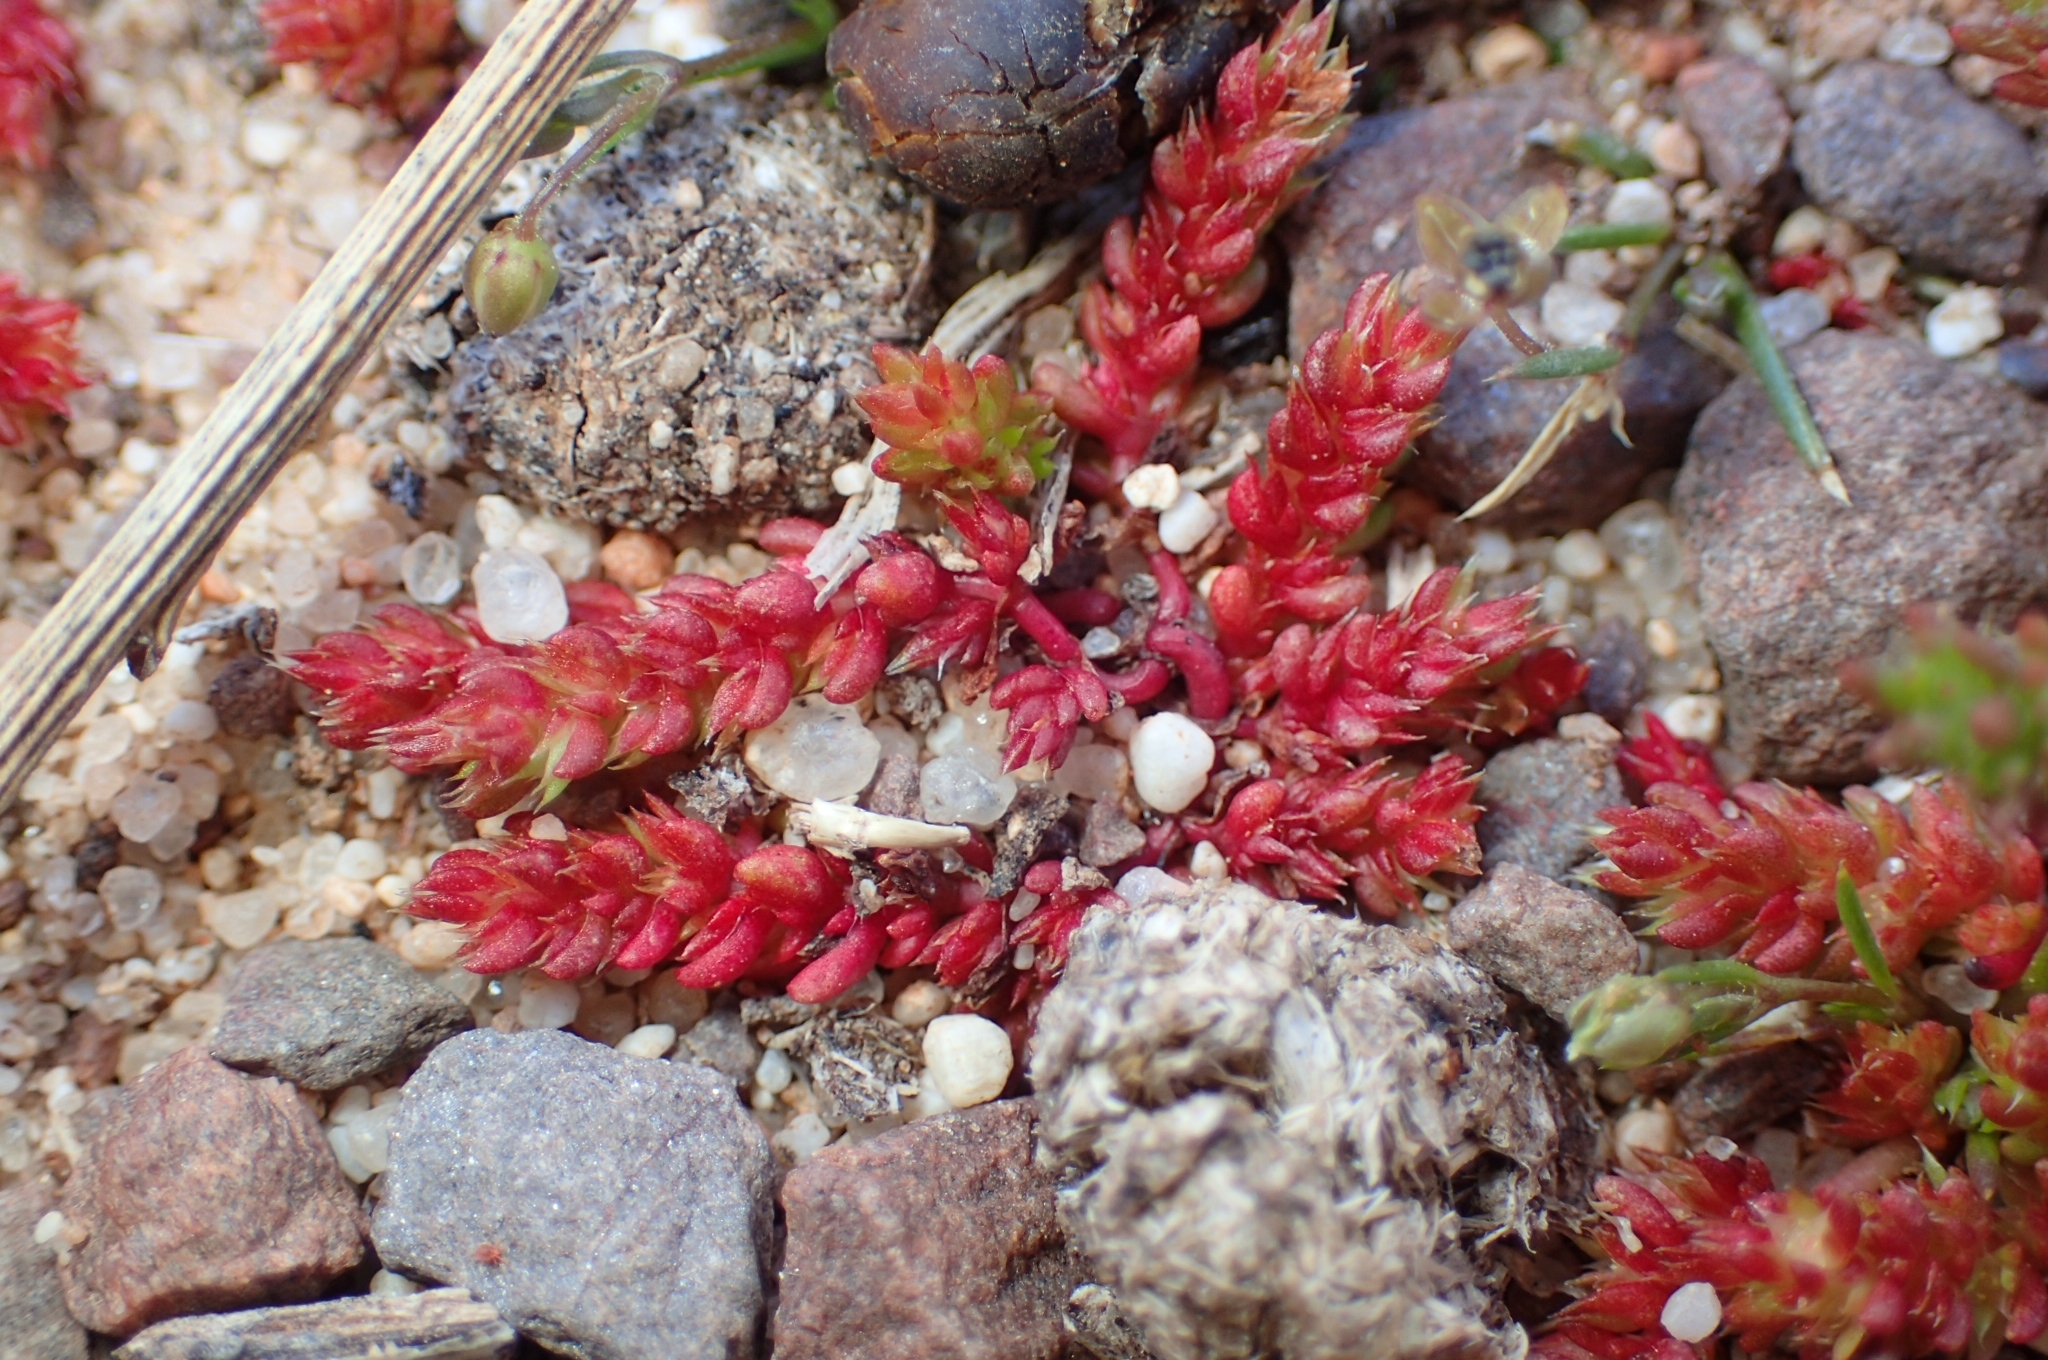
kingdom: Plantae
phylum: Tracheophyta
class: Magnoliopsida
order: Saxifragales
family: Crassulaceae
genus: Crassula
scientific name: Crassula tillaea
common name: Mossy stonecrop
